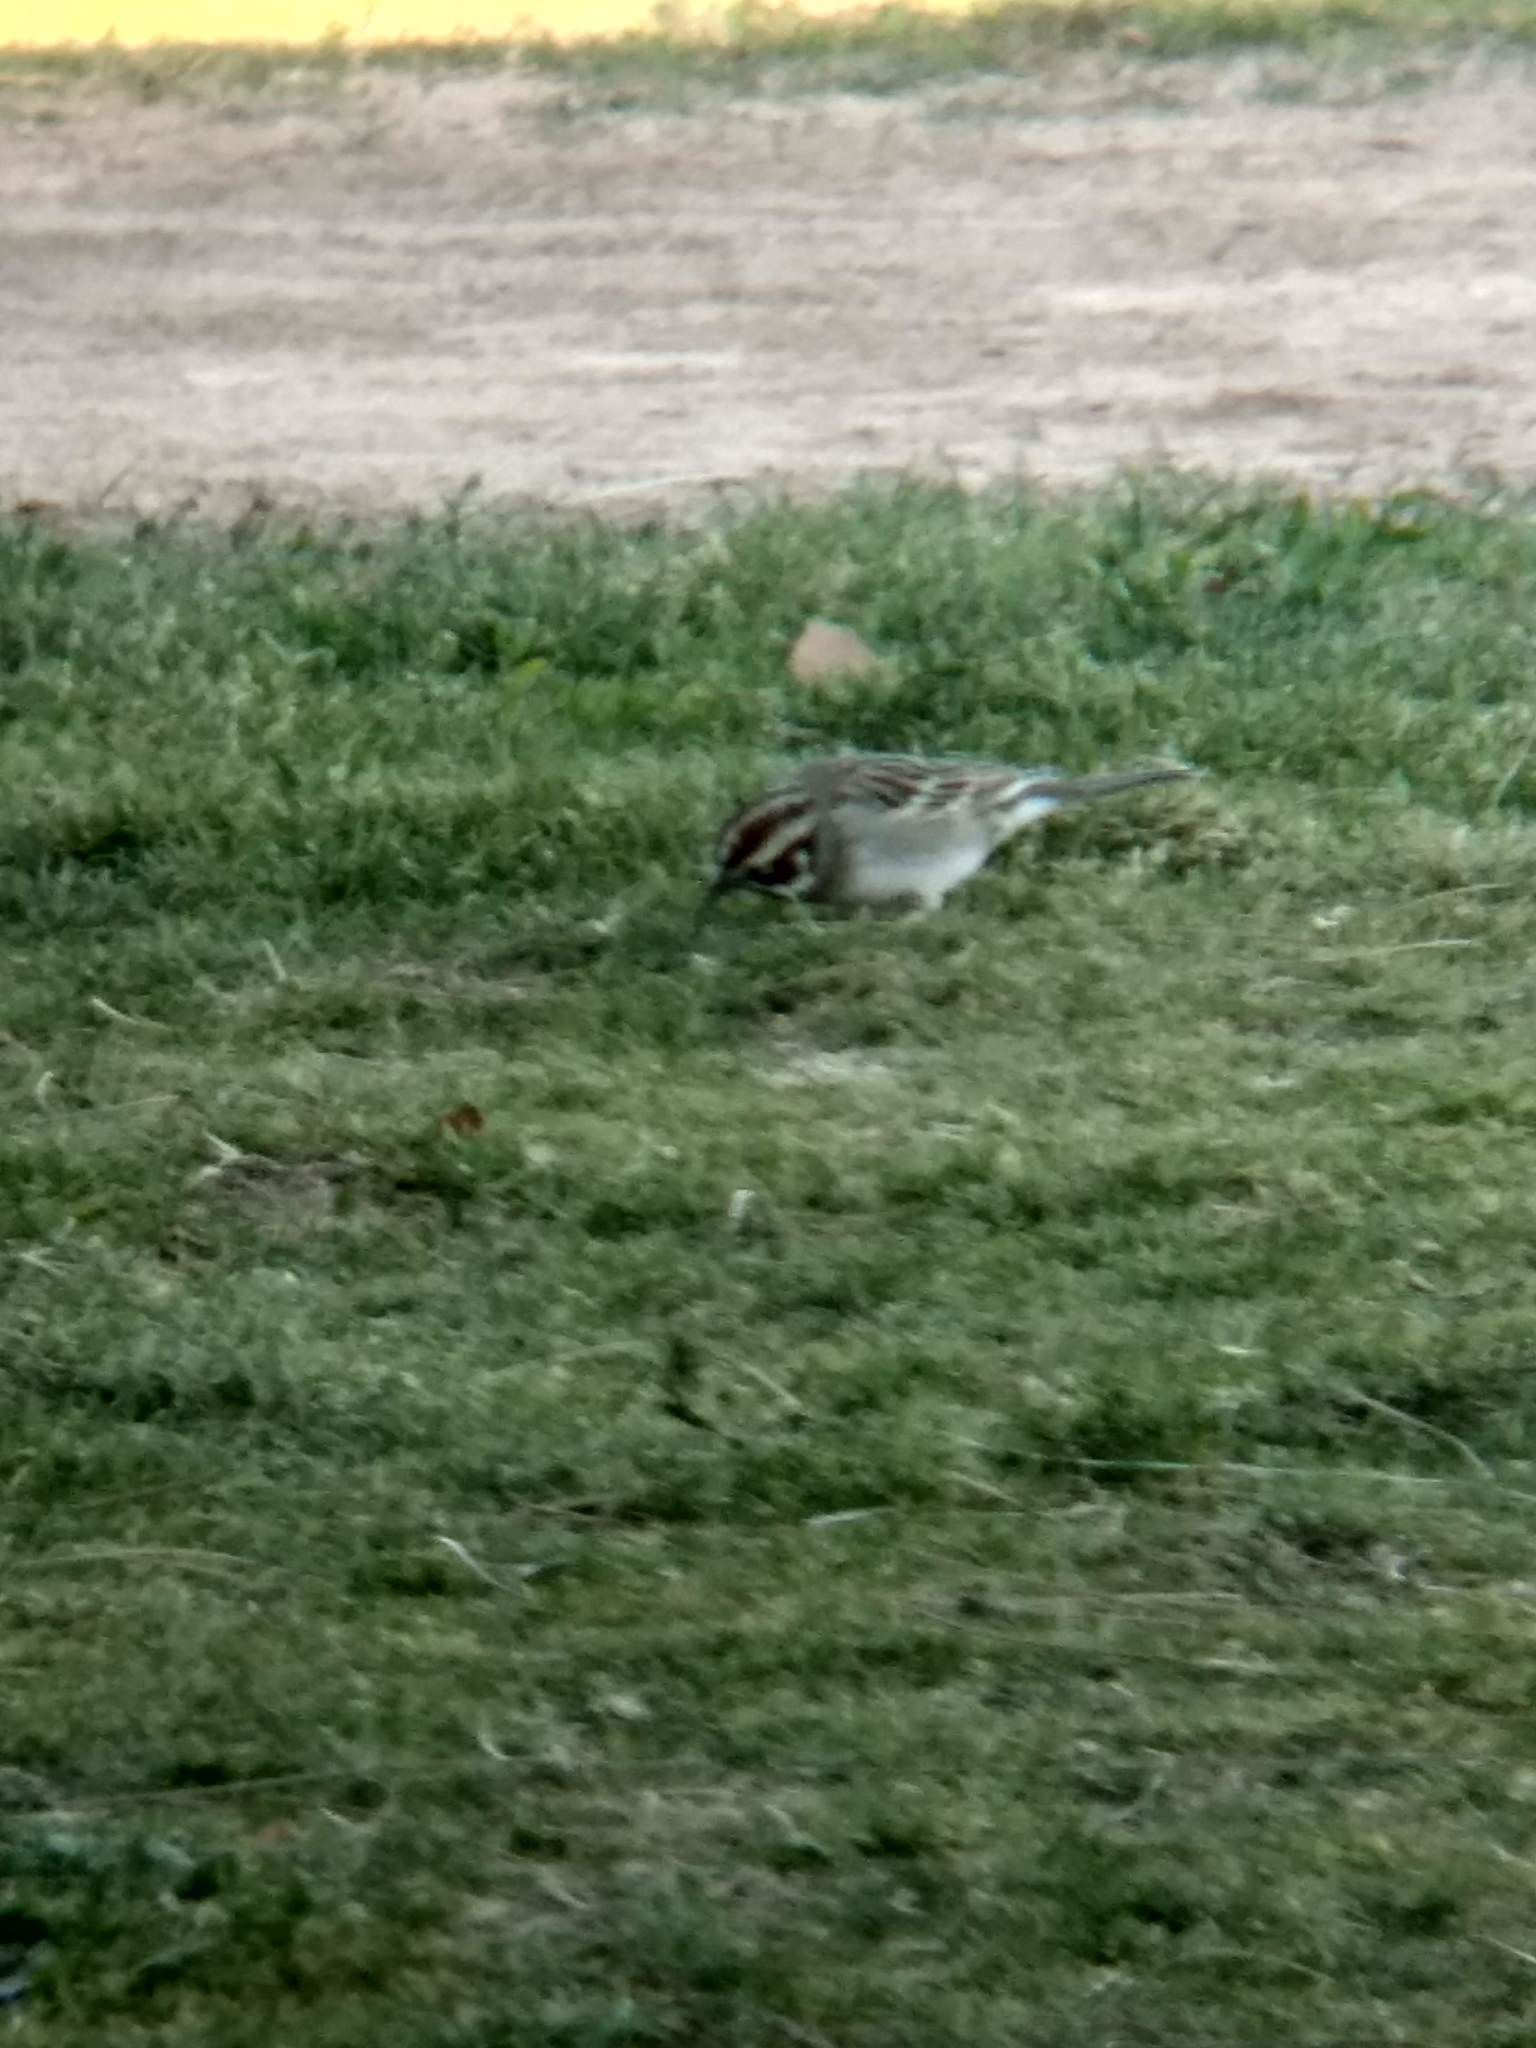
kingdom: Animalia
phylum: Chordata
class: Aves
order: Passeriformes
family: Passerellidae
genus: Chondestes
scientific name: Chondestes grammacus
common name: Lark sparrow
